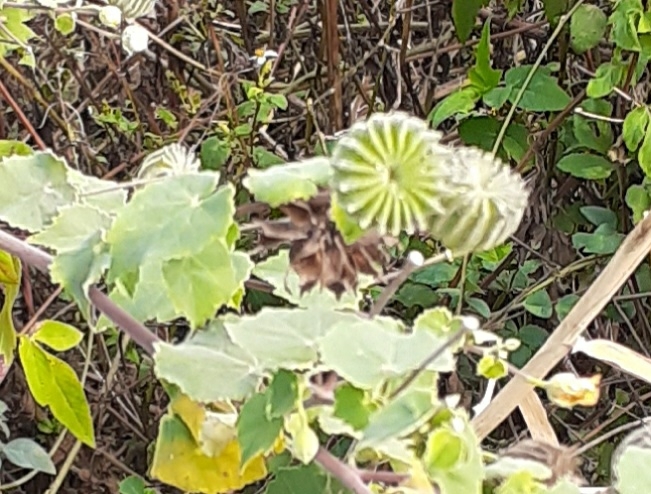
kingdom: Plantae
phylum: Tracheophyta
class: Magnoliopsida
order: Malvales
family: Malvaceae
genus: Abutilon
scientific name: Abutilon indicum
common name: Indian abutilon
